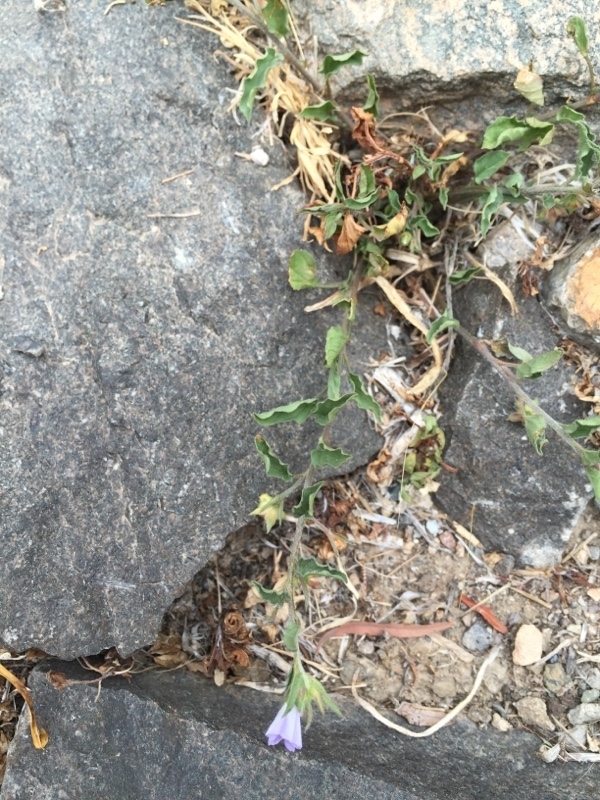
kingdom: Plantae
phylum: Tracheophyta
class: Magnoliopsida
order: Solanales
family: Convolvulaceae
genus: Convolvulus
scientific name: Convolvulus siculus
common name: Small blue-convolvulus
